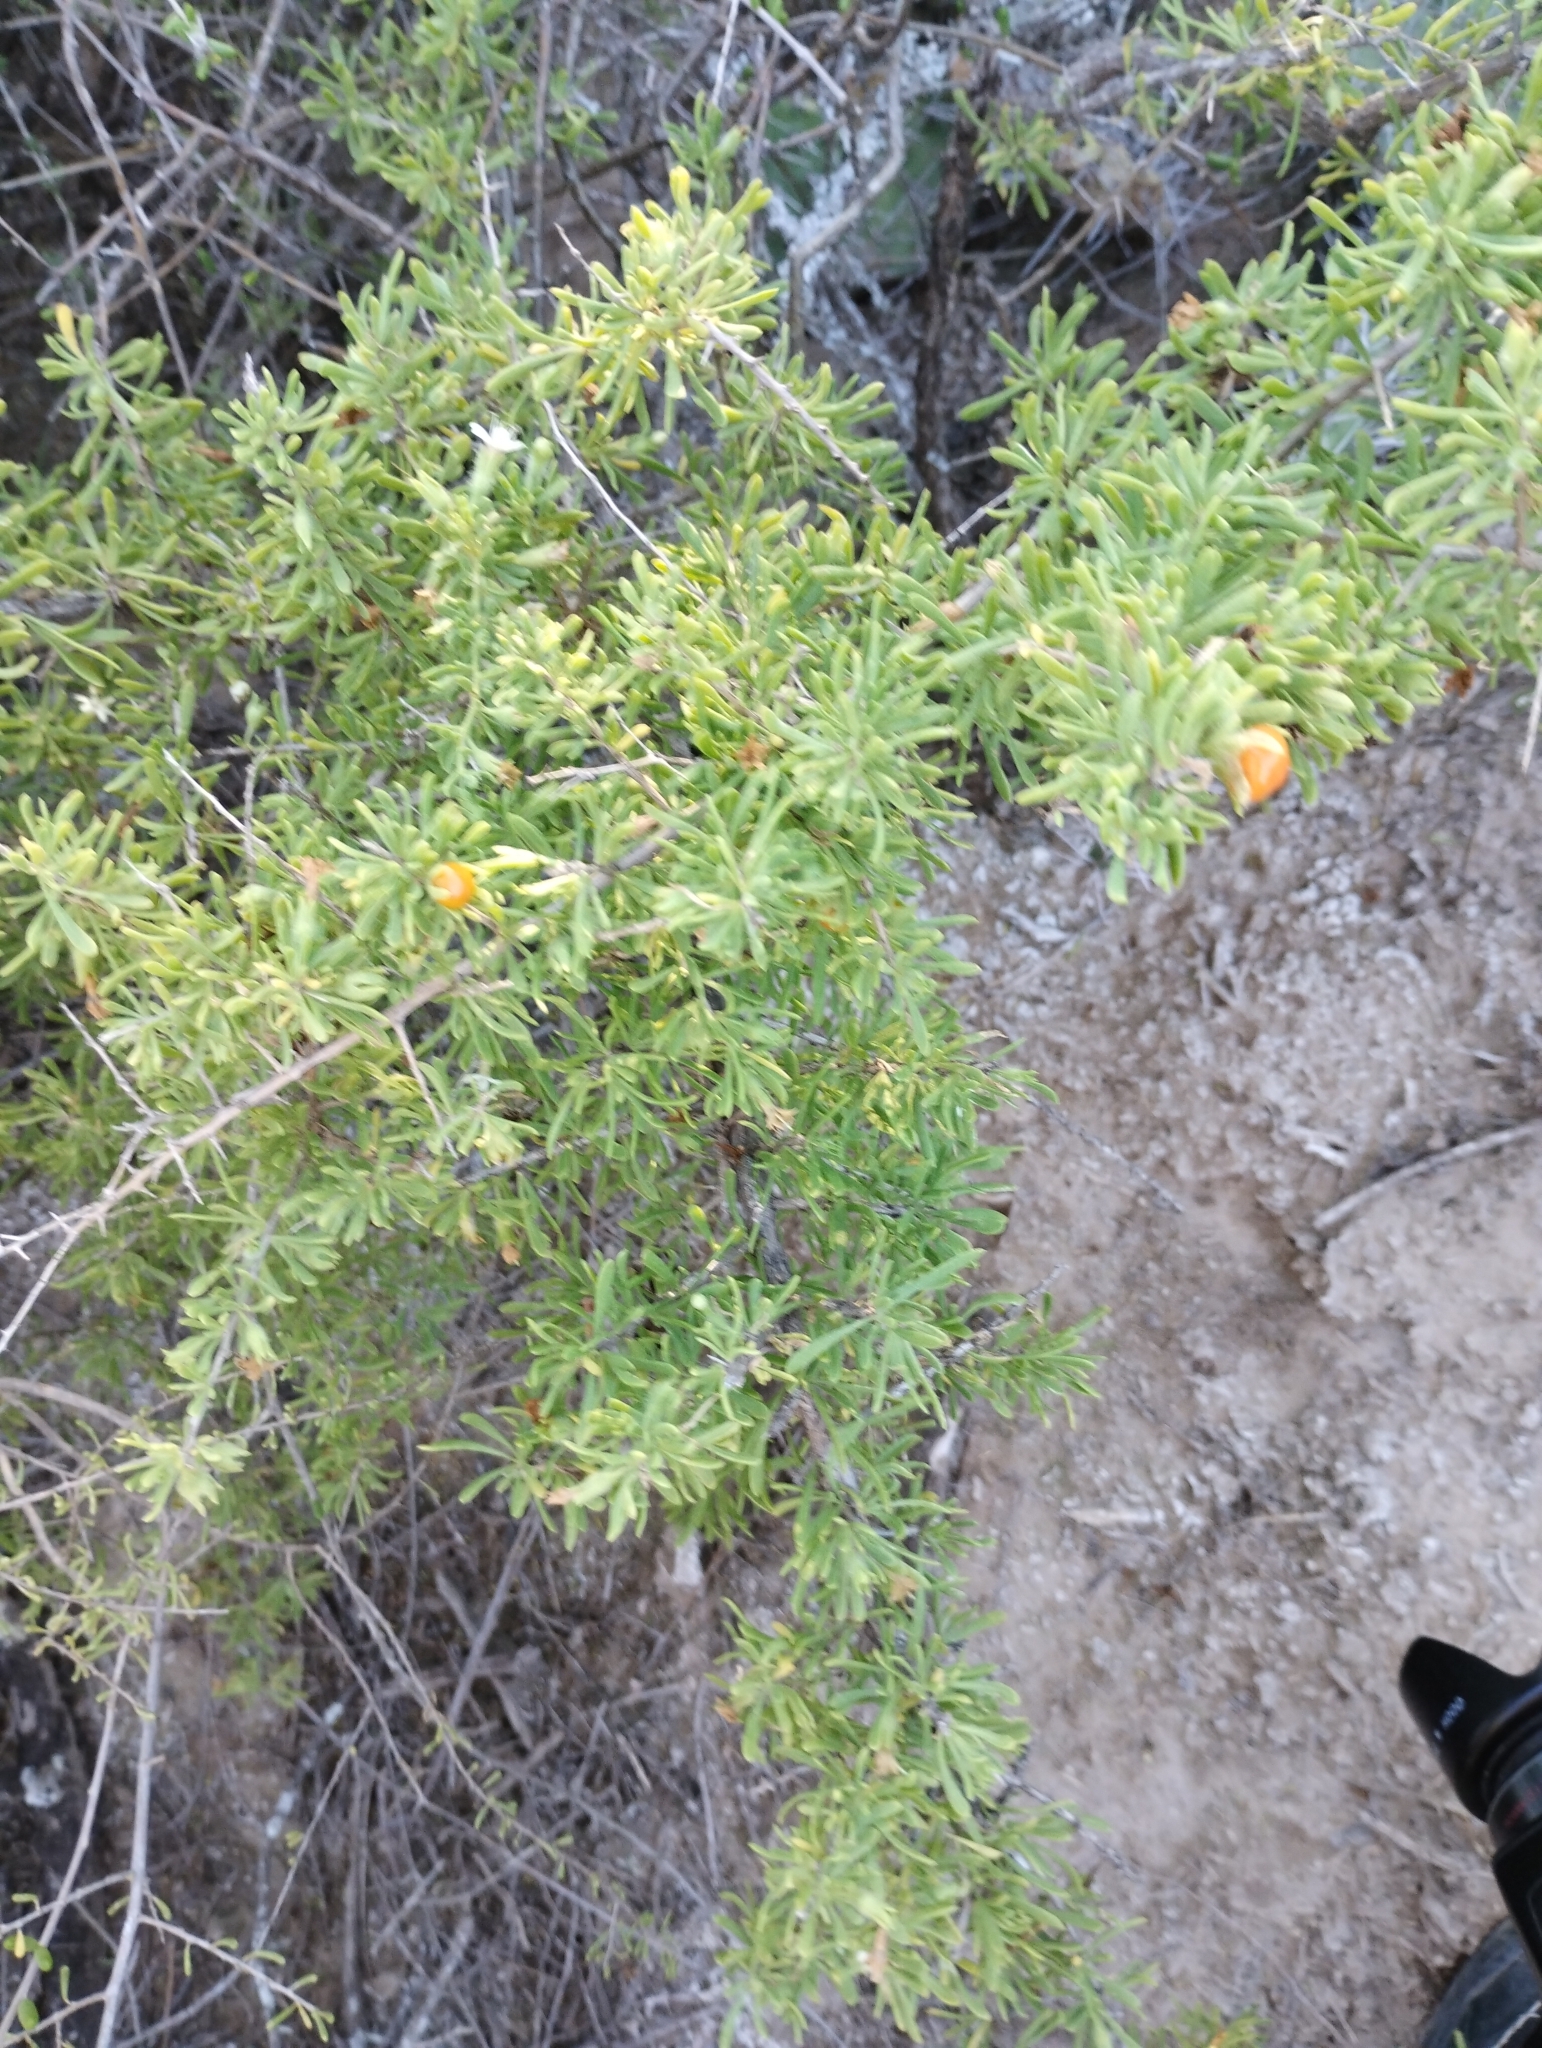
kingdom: Plantae
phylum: Tracheophyta
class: Magnoliopsida
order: Solanales
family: Solanaceae
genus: Lycium
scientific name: Lycium tenuispinosum
